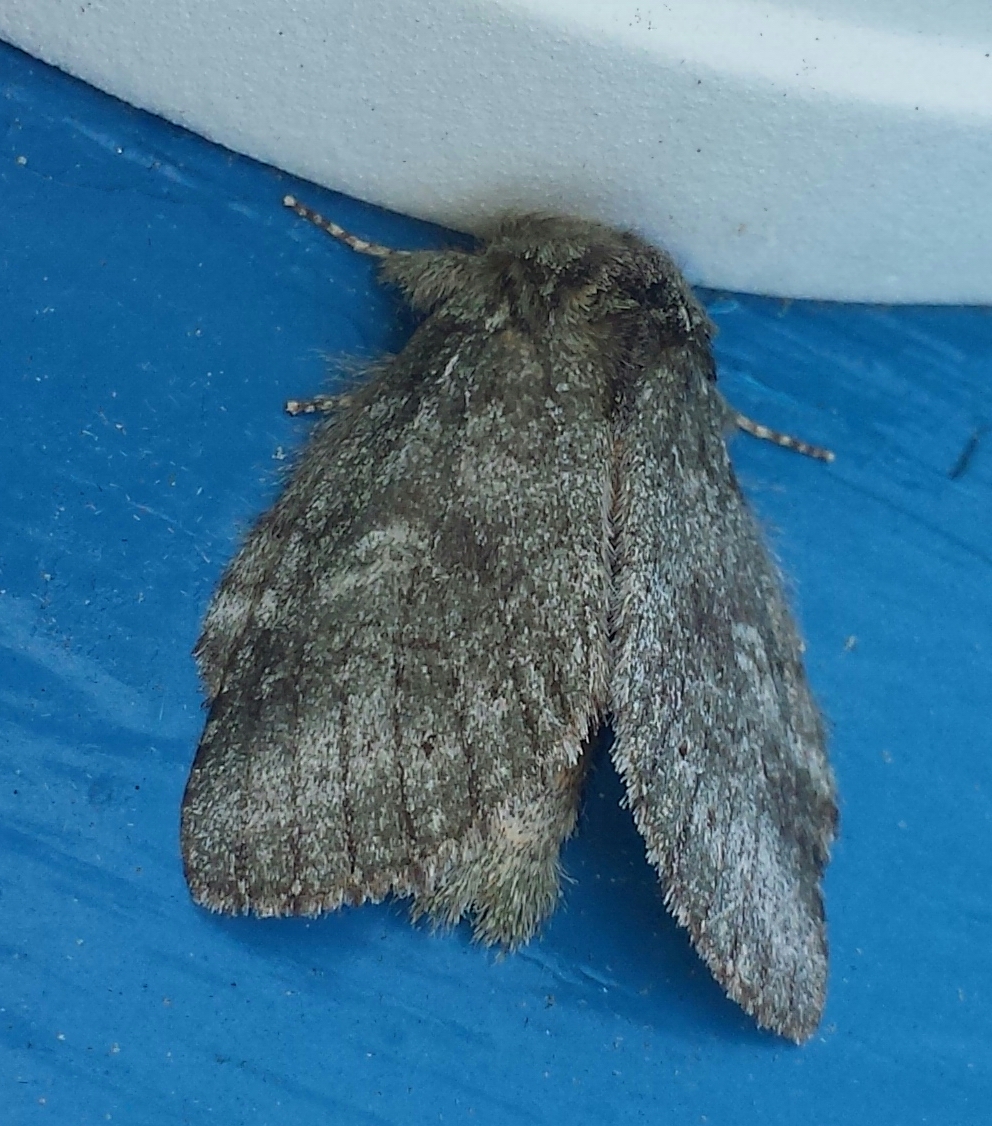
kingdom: Animalia
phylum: Arthropoda
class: Insecta
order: Lepidoptera
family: Notodontidae
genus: Disphragis
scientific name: Disphragis Cecrita guttivitta
